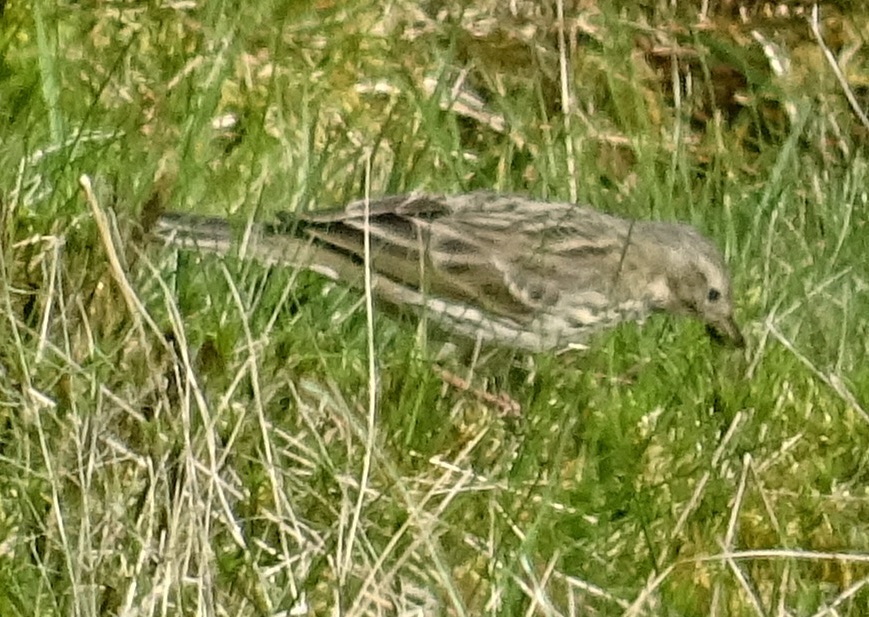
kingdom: Animalia
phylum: Chordata
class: Aves
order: Passeriformes
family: Motacillidae
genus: Anthus
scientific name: Anthus pratensis
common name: Meadow pipit
